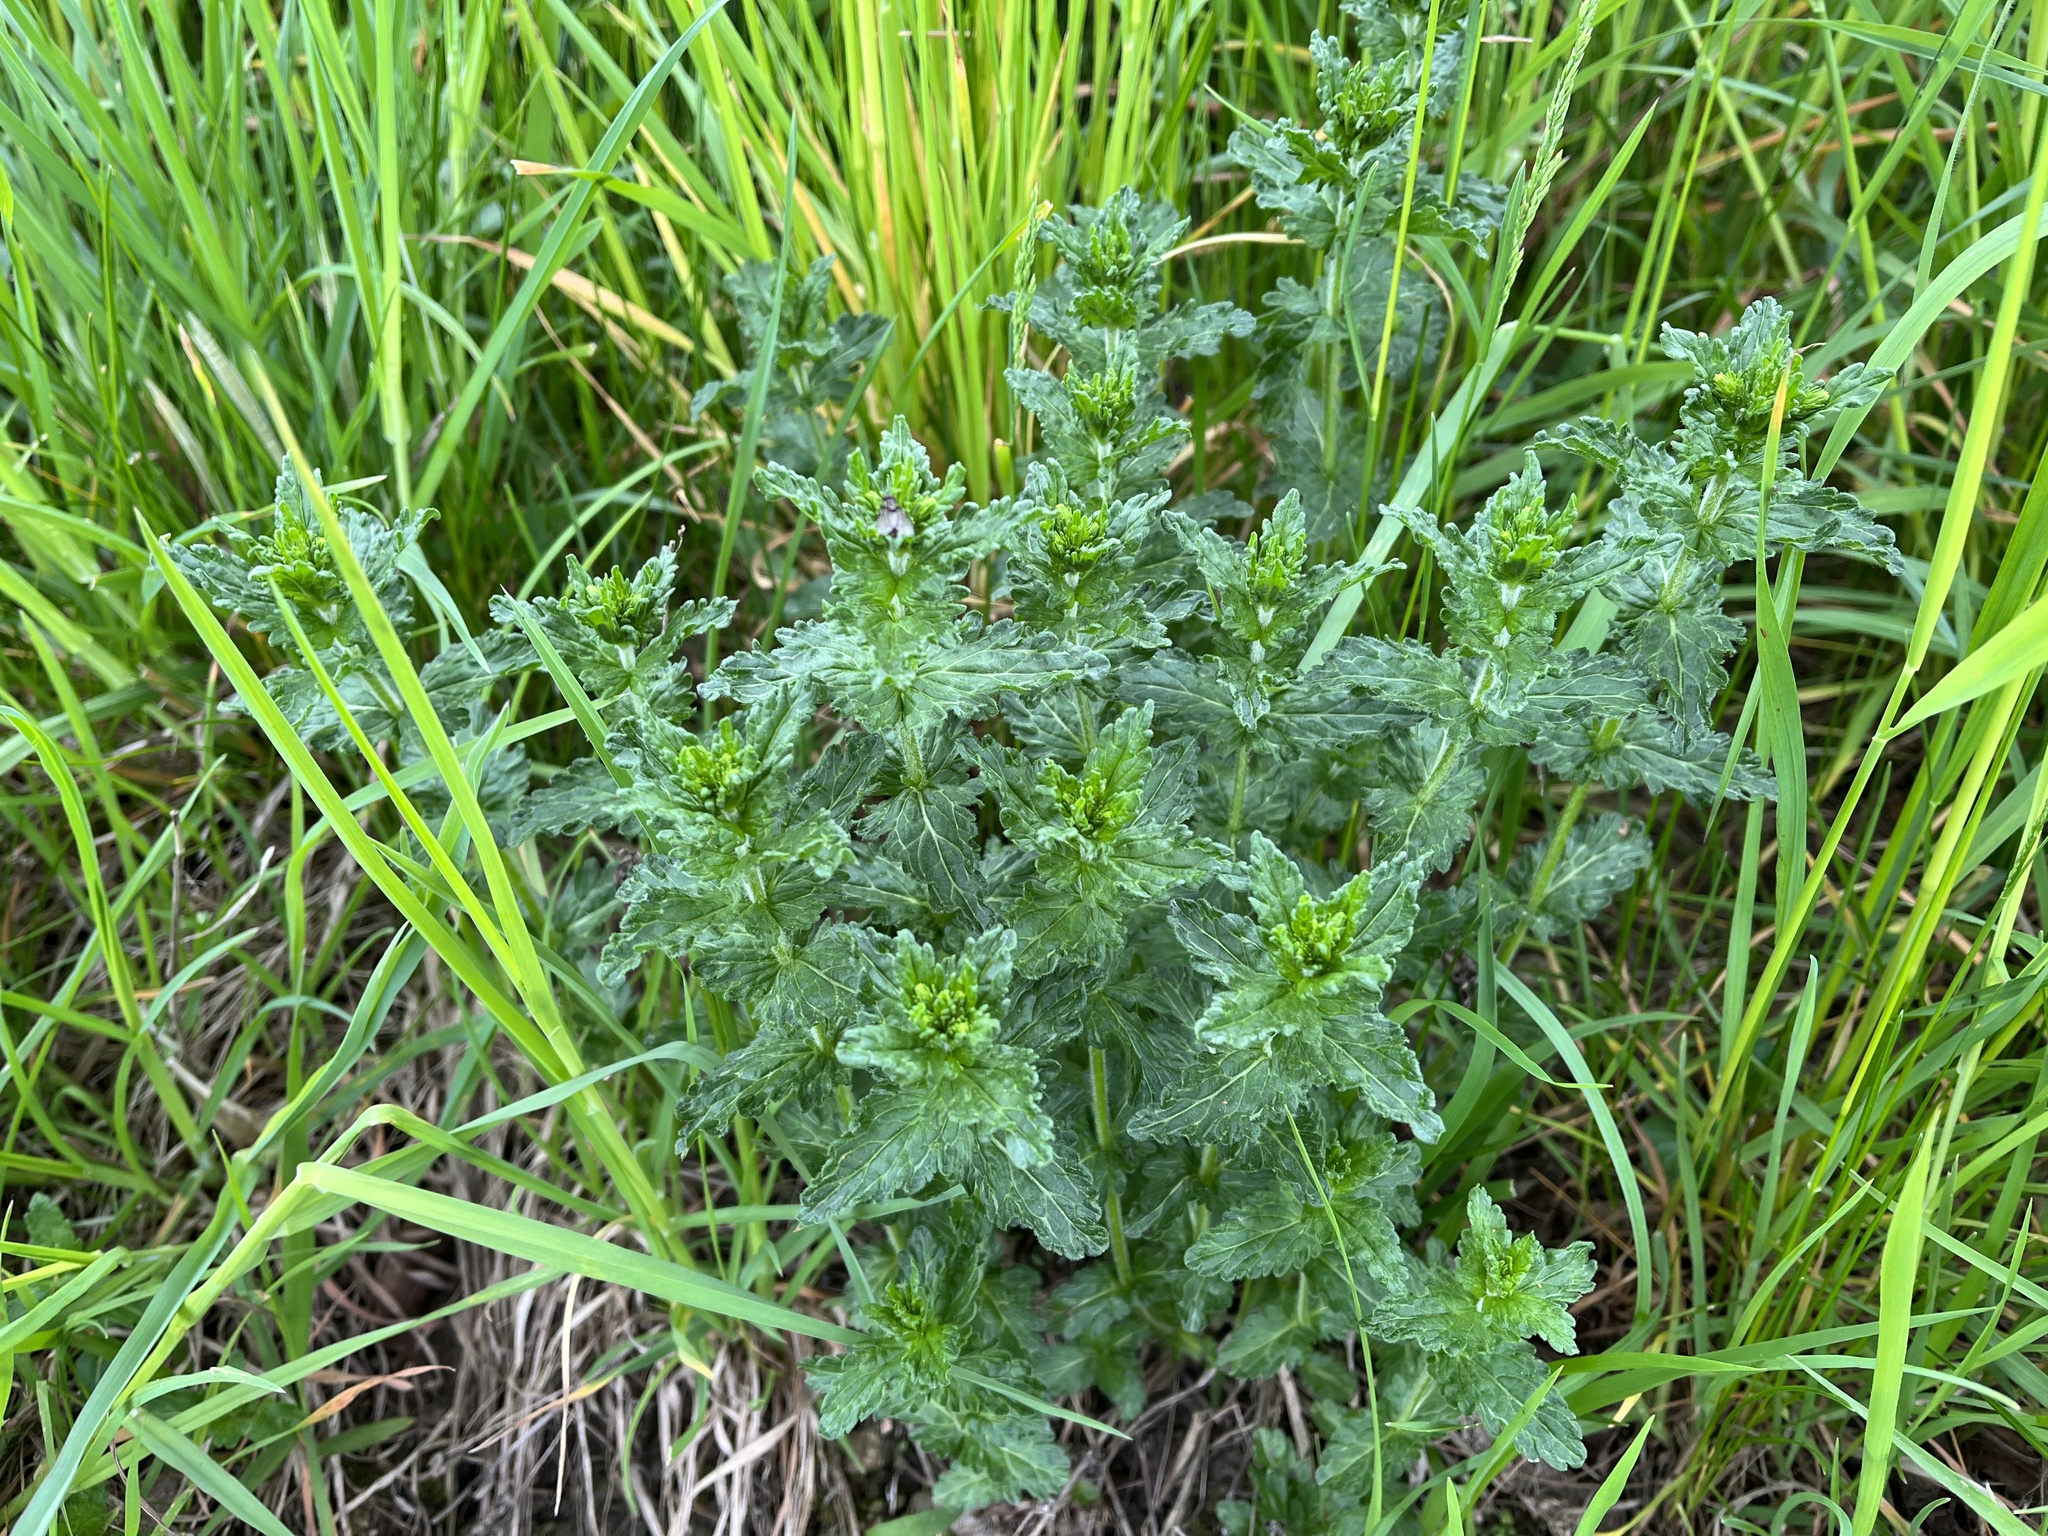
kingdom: Plantae
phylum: Tracheophyta
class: Magnoliopsida
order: Lamiales
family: Plantaginaceae
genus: Veronica
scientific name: Veronica teucrium
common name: Large speedwell
